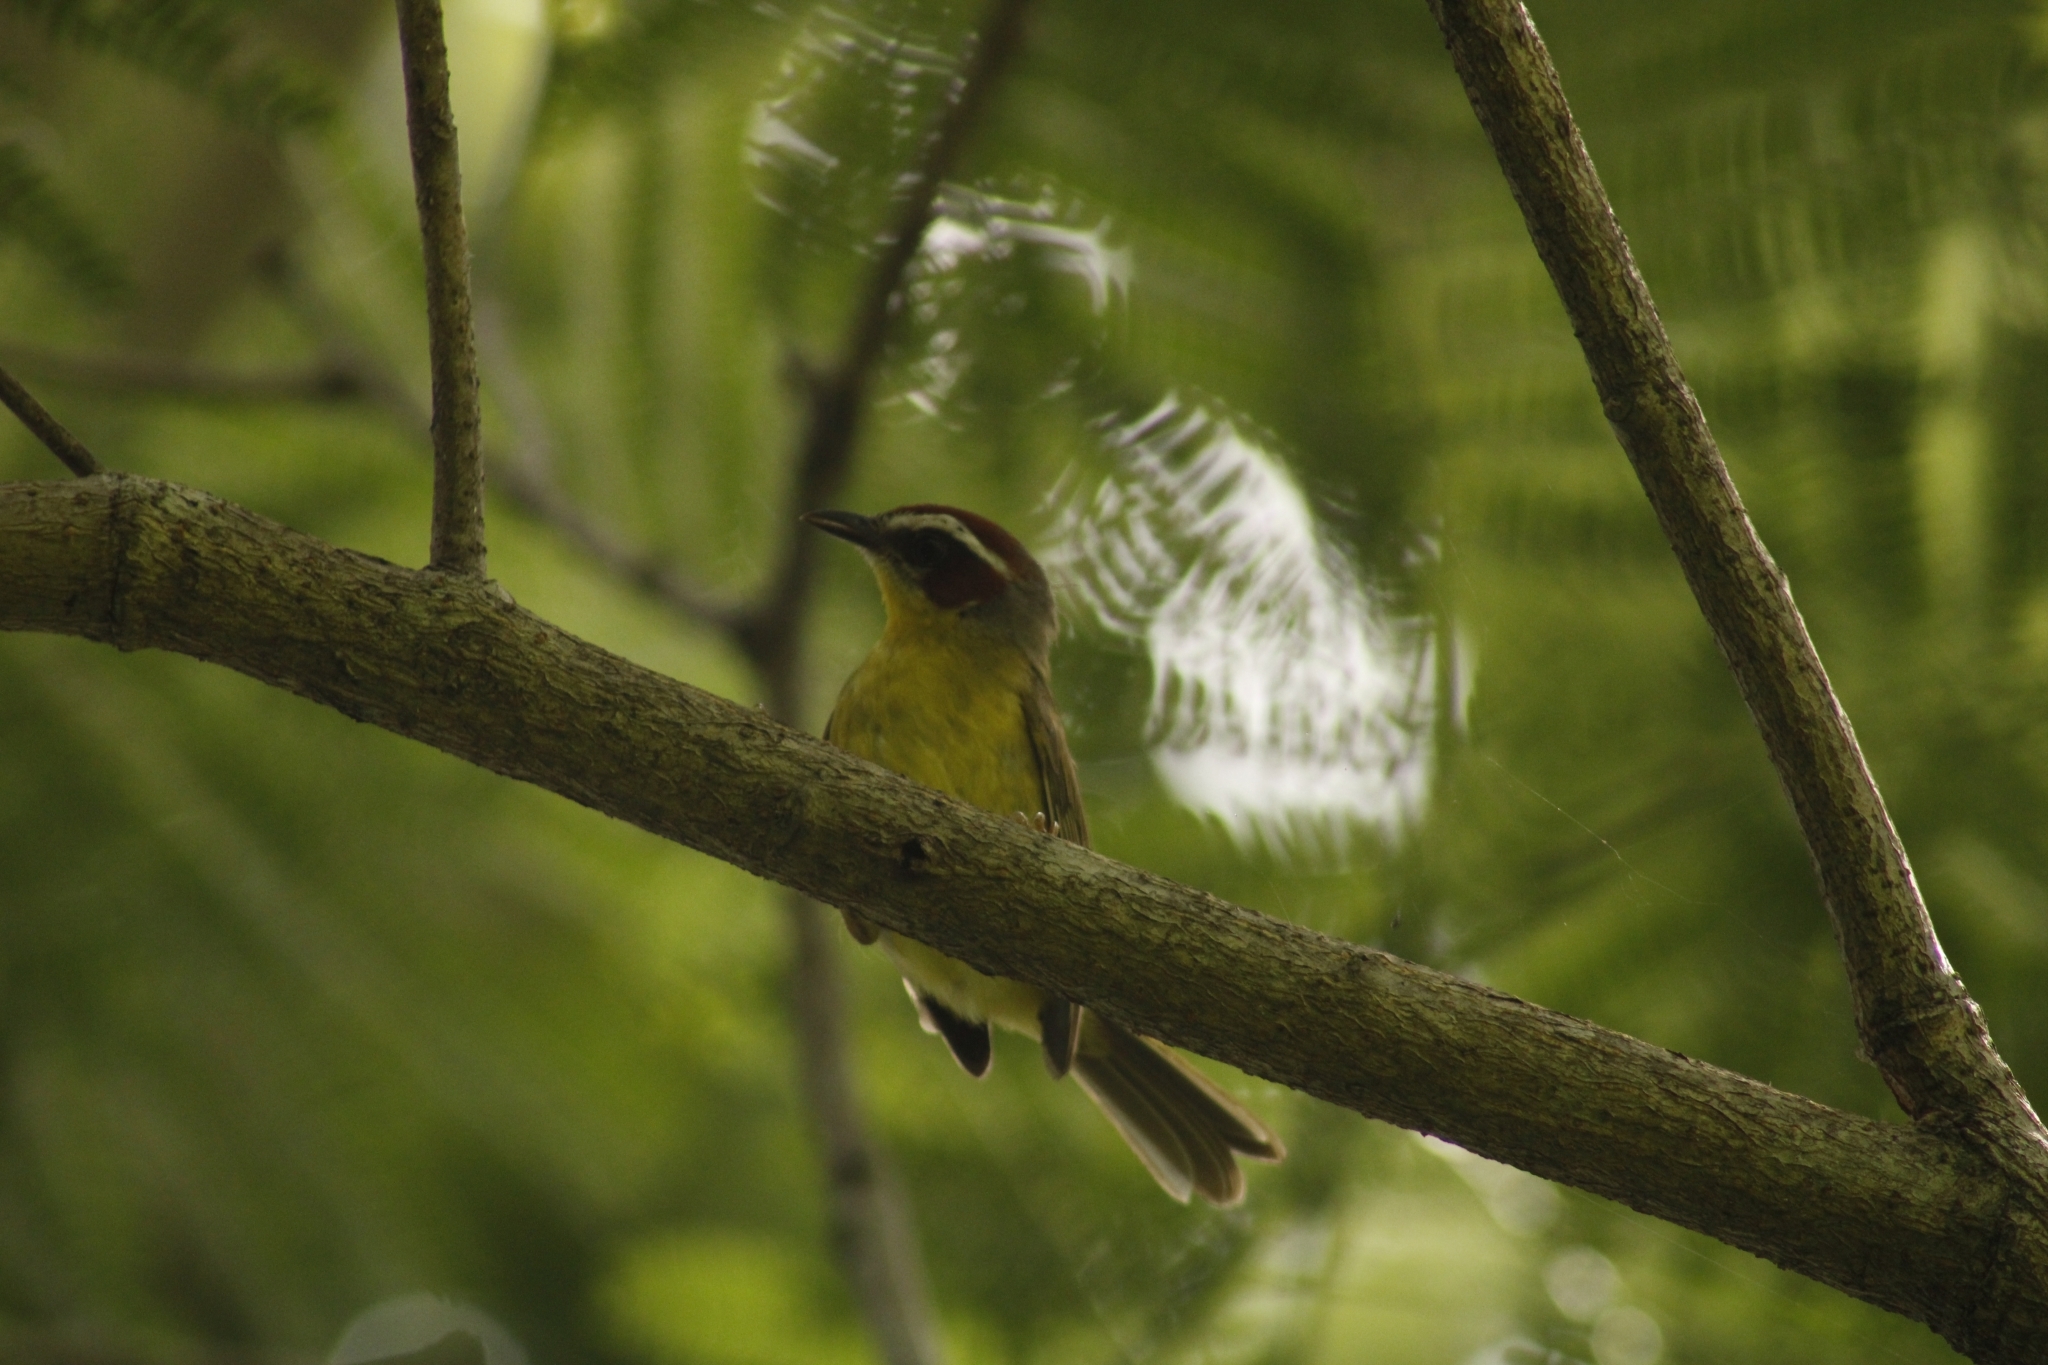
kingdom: Animalia
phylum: Chordata
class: Aves
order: Passeriformes
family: Parulidae
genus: Basileuterus
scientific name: Basileuterus rufifrons
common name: Rufous-capped warbler
